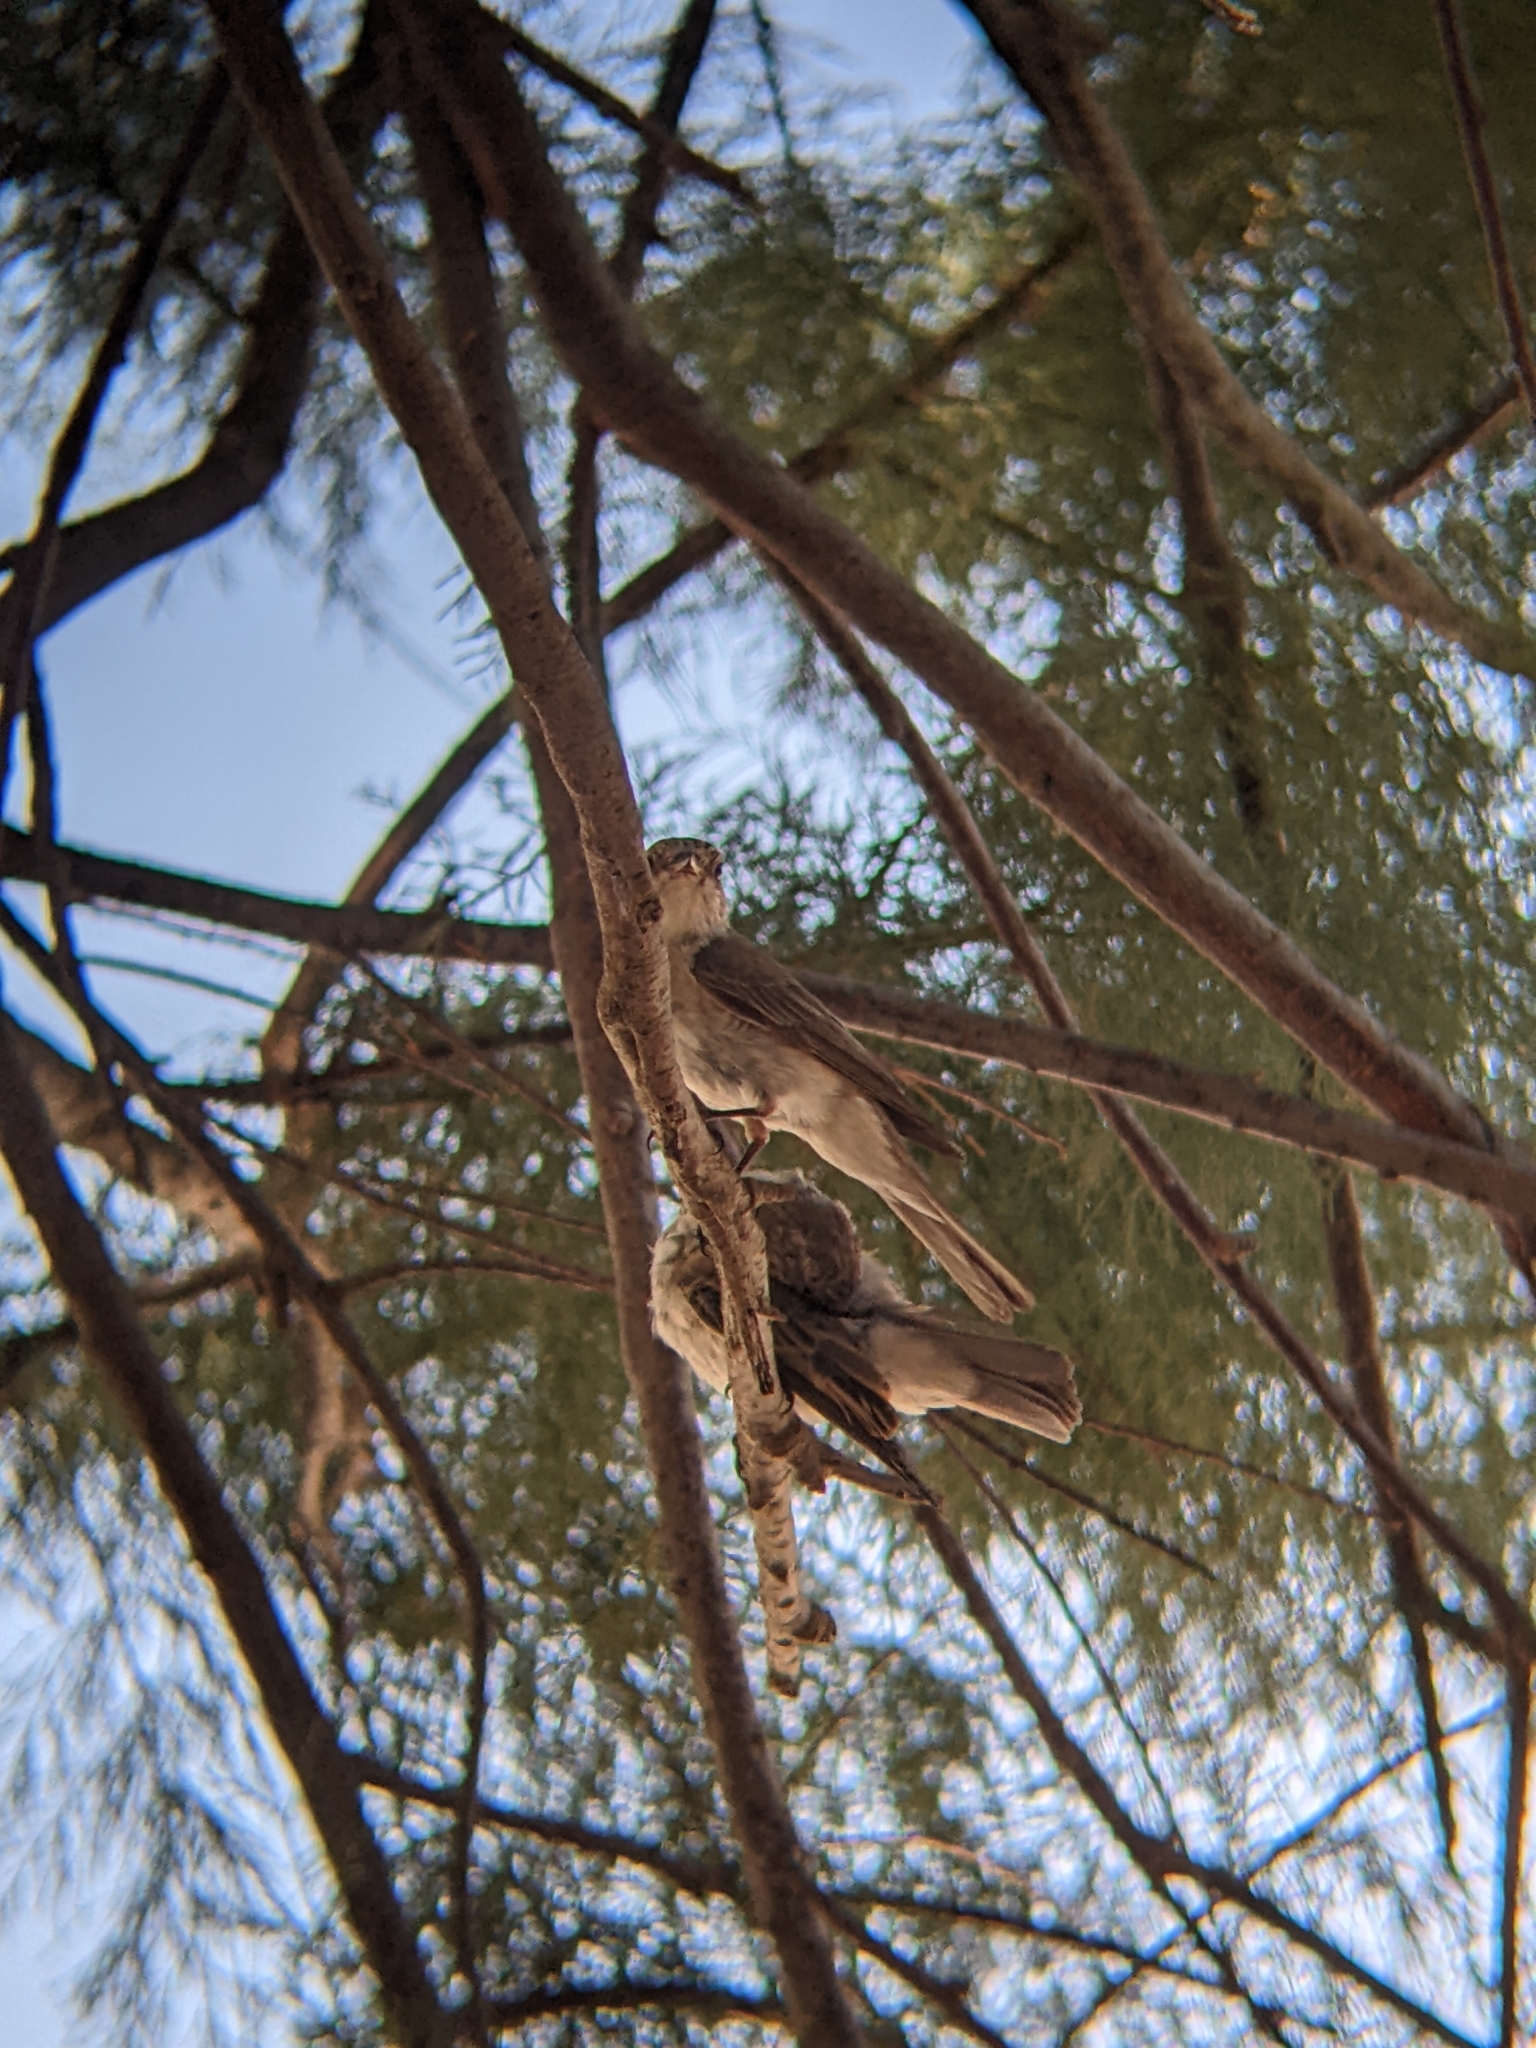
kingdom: Animalia
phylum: Chordata
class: Aves
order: Passeriformes
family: Muscicapidae
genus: Muscicapa
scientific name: Muscicapa striata
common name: Spotted flycatcher
